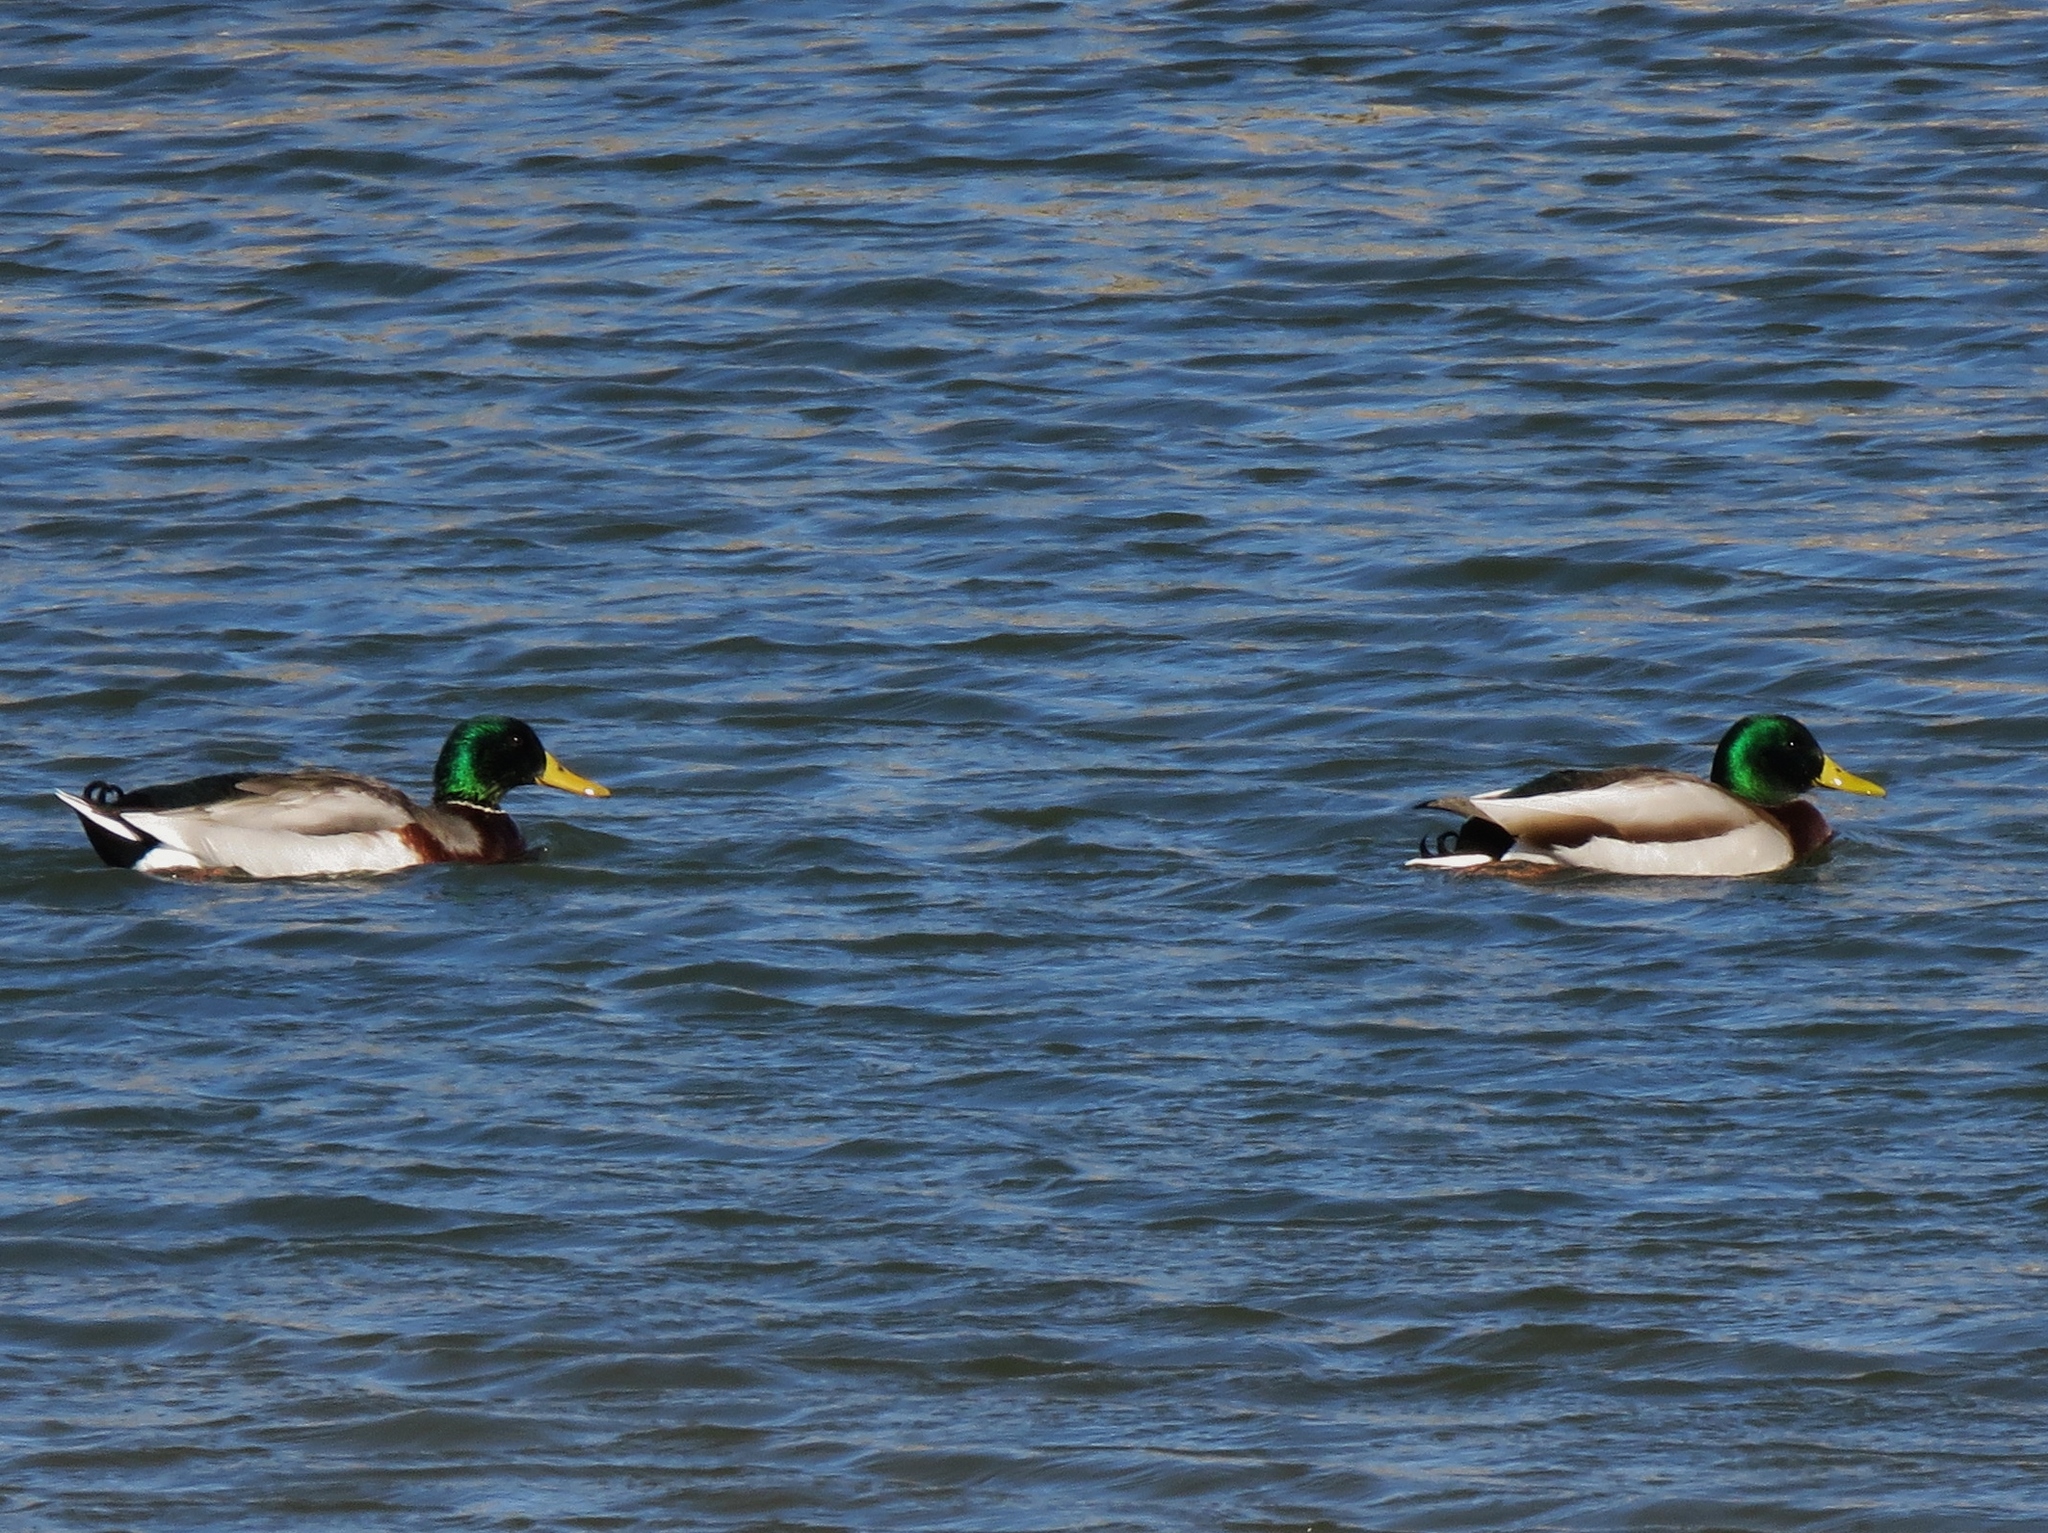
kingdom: Animalia
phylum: Chordata
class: Aves
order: Anseriformes
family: Anatidae
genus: Anas
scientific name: Anas platyrhynchos
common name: Mallard
